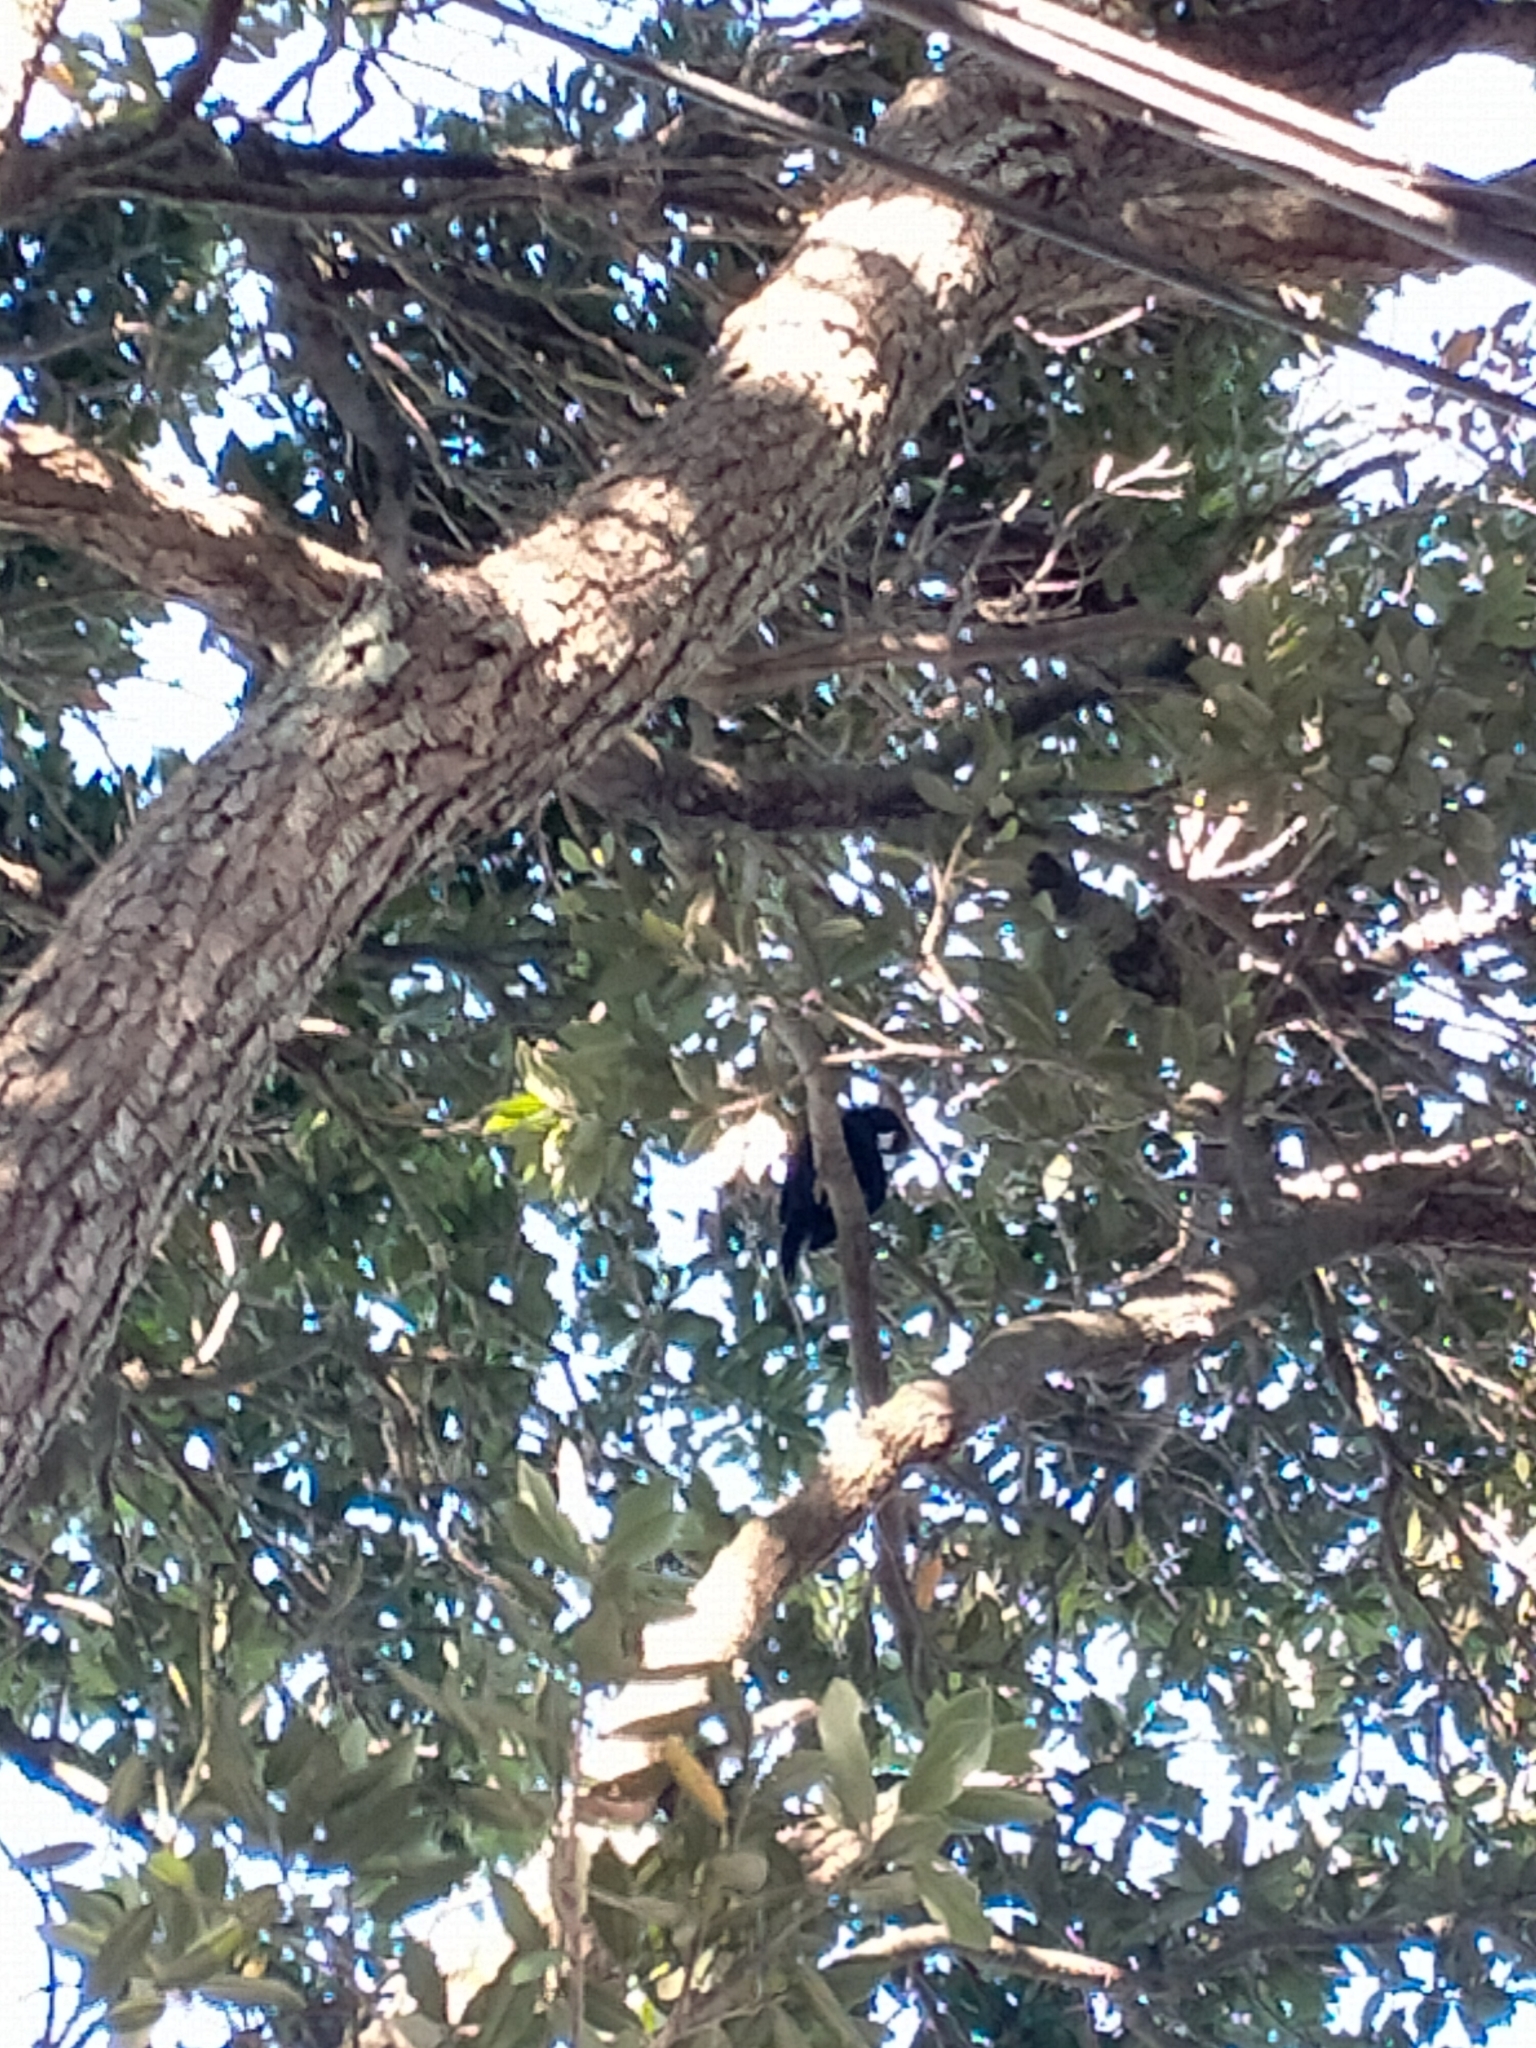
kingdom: Animalia
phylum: Chordata
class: Aves
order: Passeriformes
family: Meliphagidae
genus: Prosthemadera
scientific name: Prosthemadera novaeseelandiae
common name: Tui
